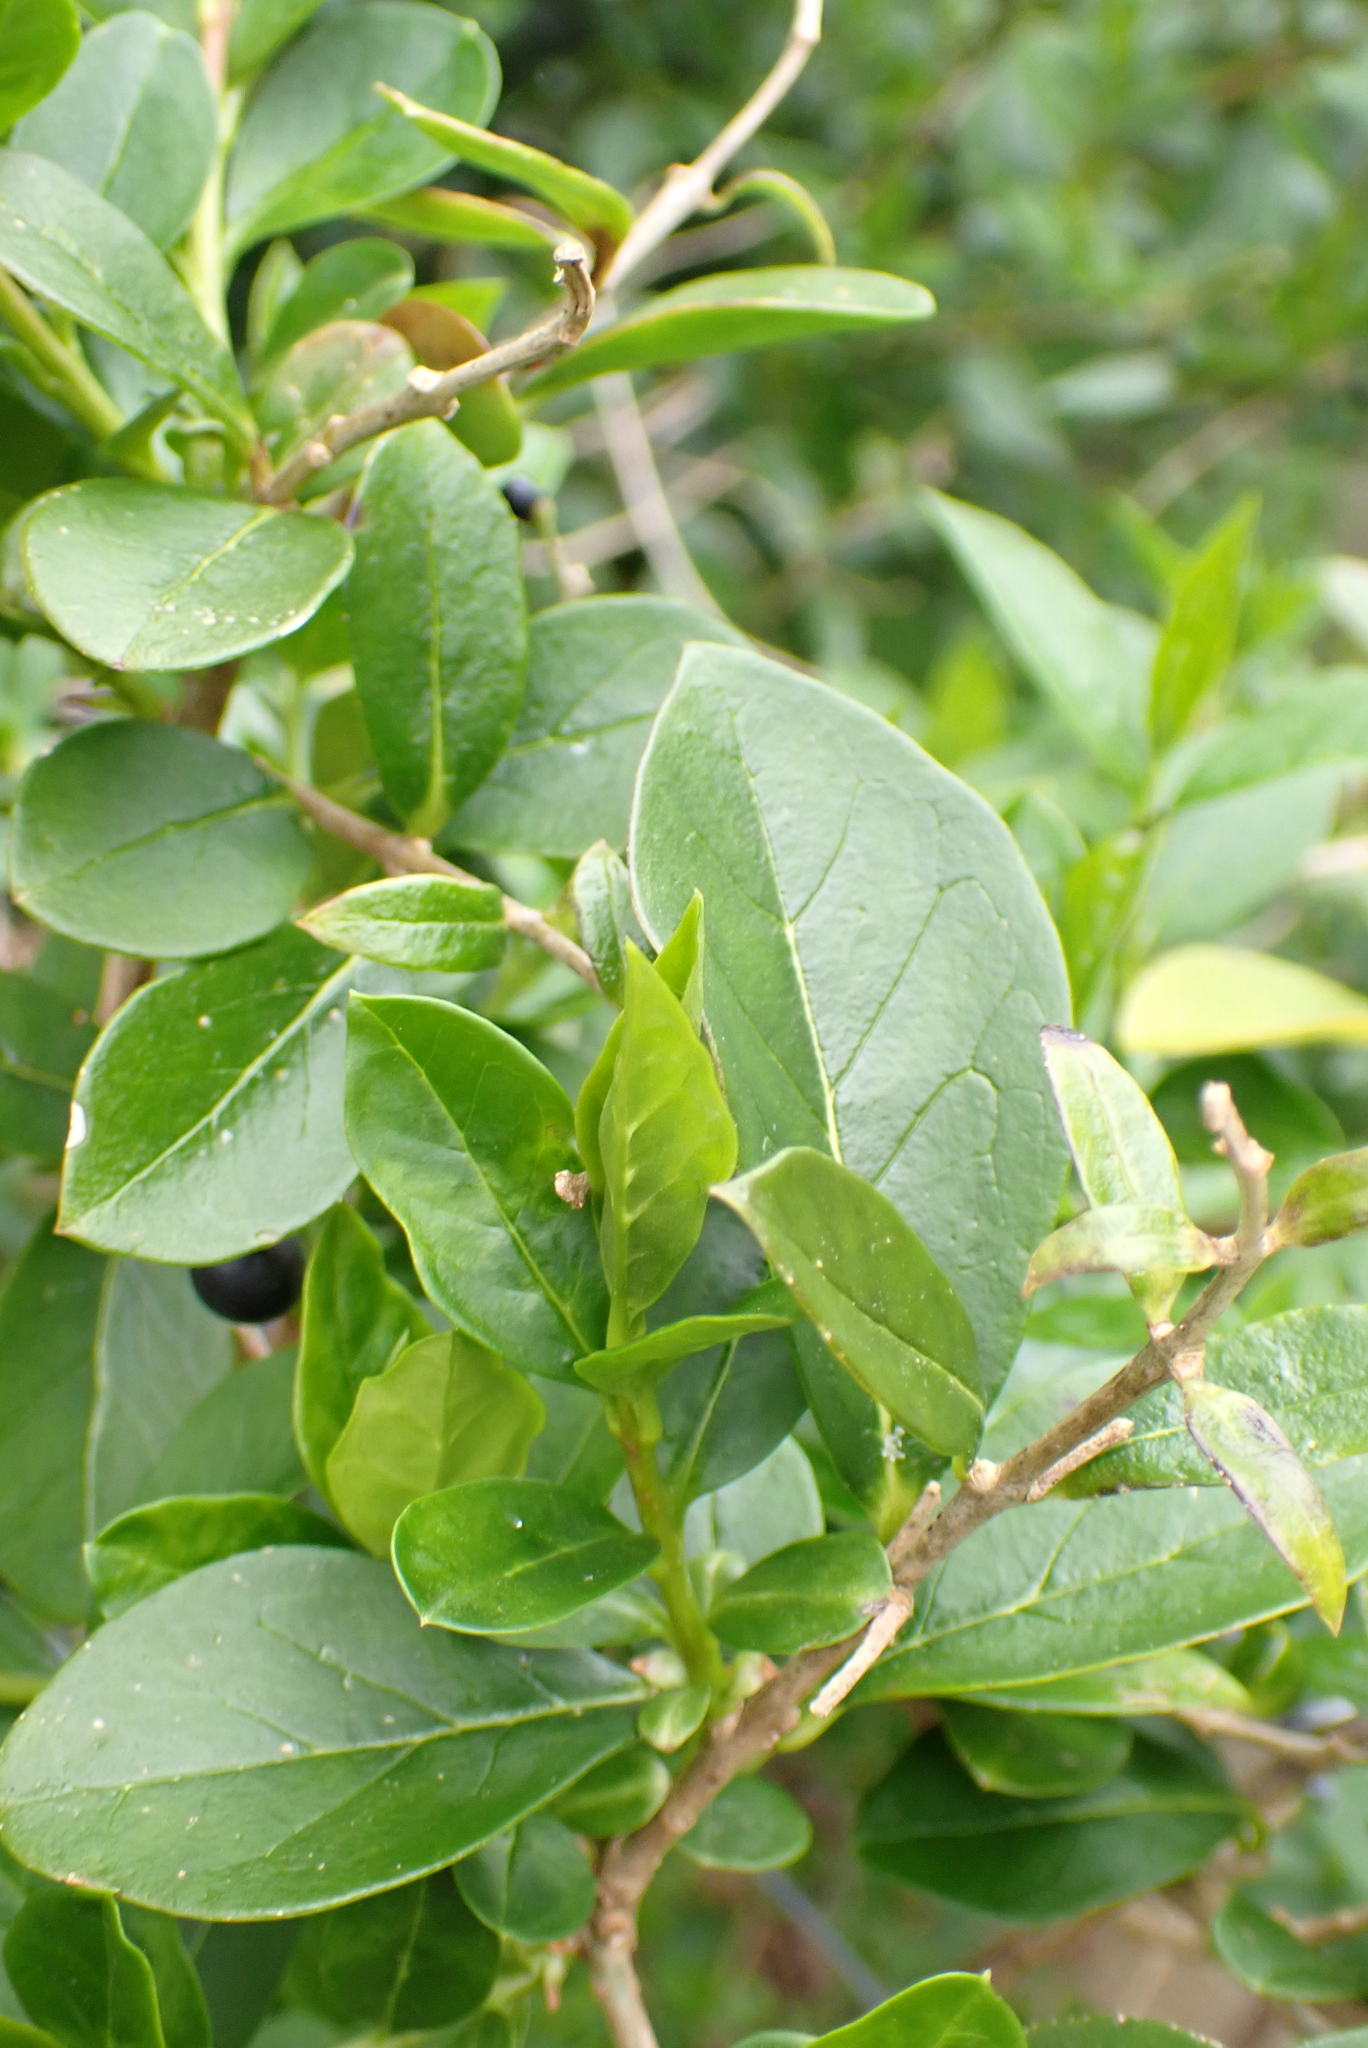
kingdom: Plantae
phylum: Tracheophyta
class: Magnoliopsida
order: Lamiales
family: Oleaceae
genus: Ligustrum
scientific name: Ligustrum ovalifolium
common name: California privet
